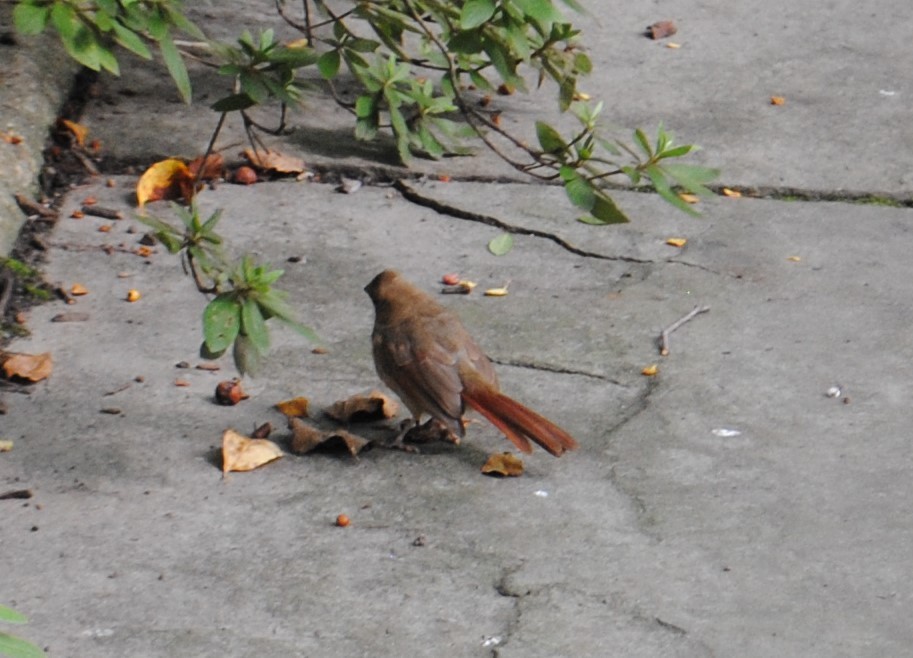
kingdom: Animalia
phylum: Chordata
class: Aves
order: Passeriformes
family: Cardinalidae
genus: Cardinalis
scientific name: Cardinalis cardinalis
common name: Northern cardinal
